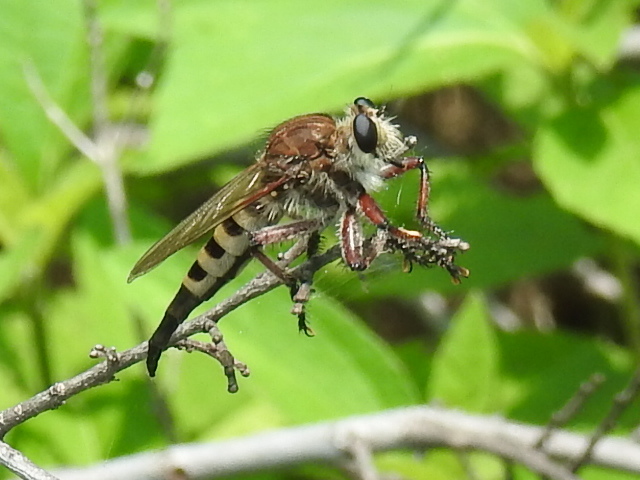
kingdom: Animalia
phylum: Arthropoda
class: Insecta
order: Diptera
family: Asilidae
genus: Promachus
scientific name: Promachus hinei
